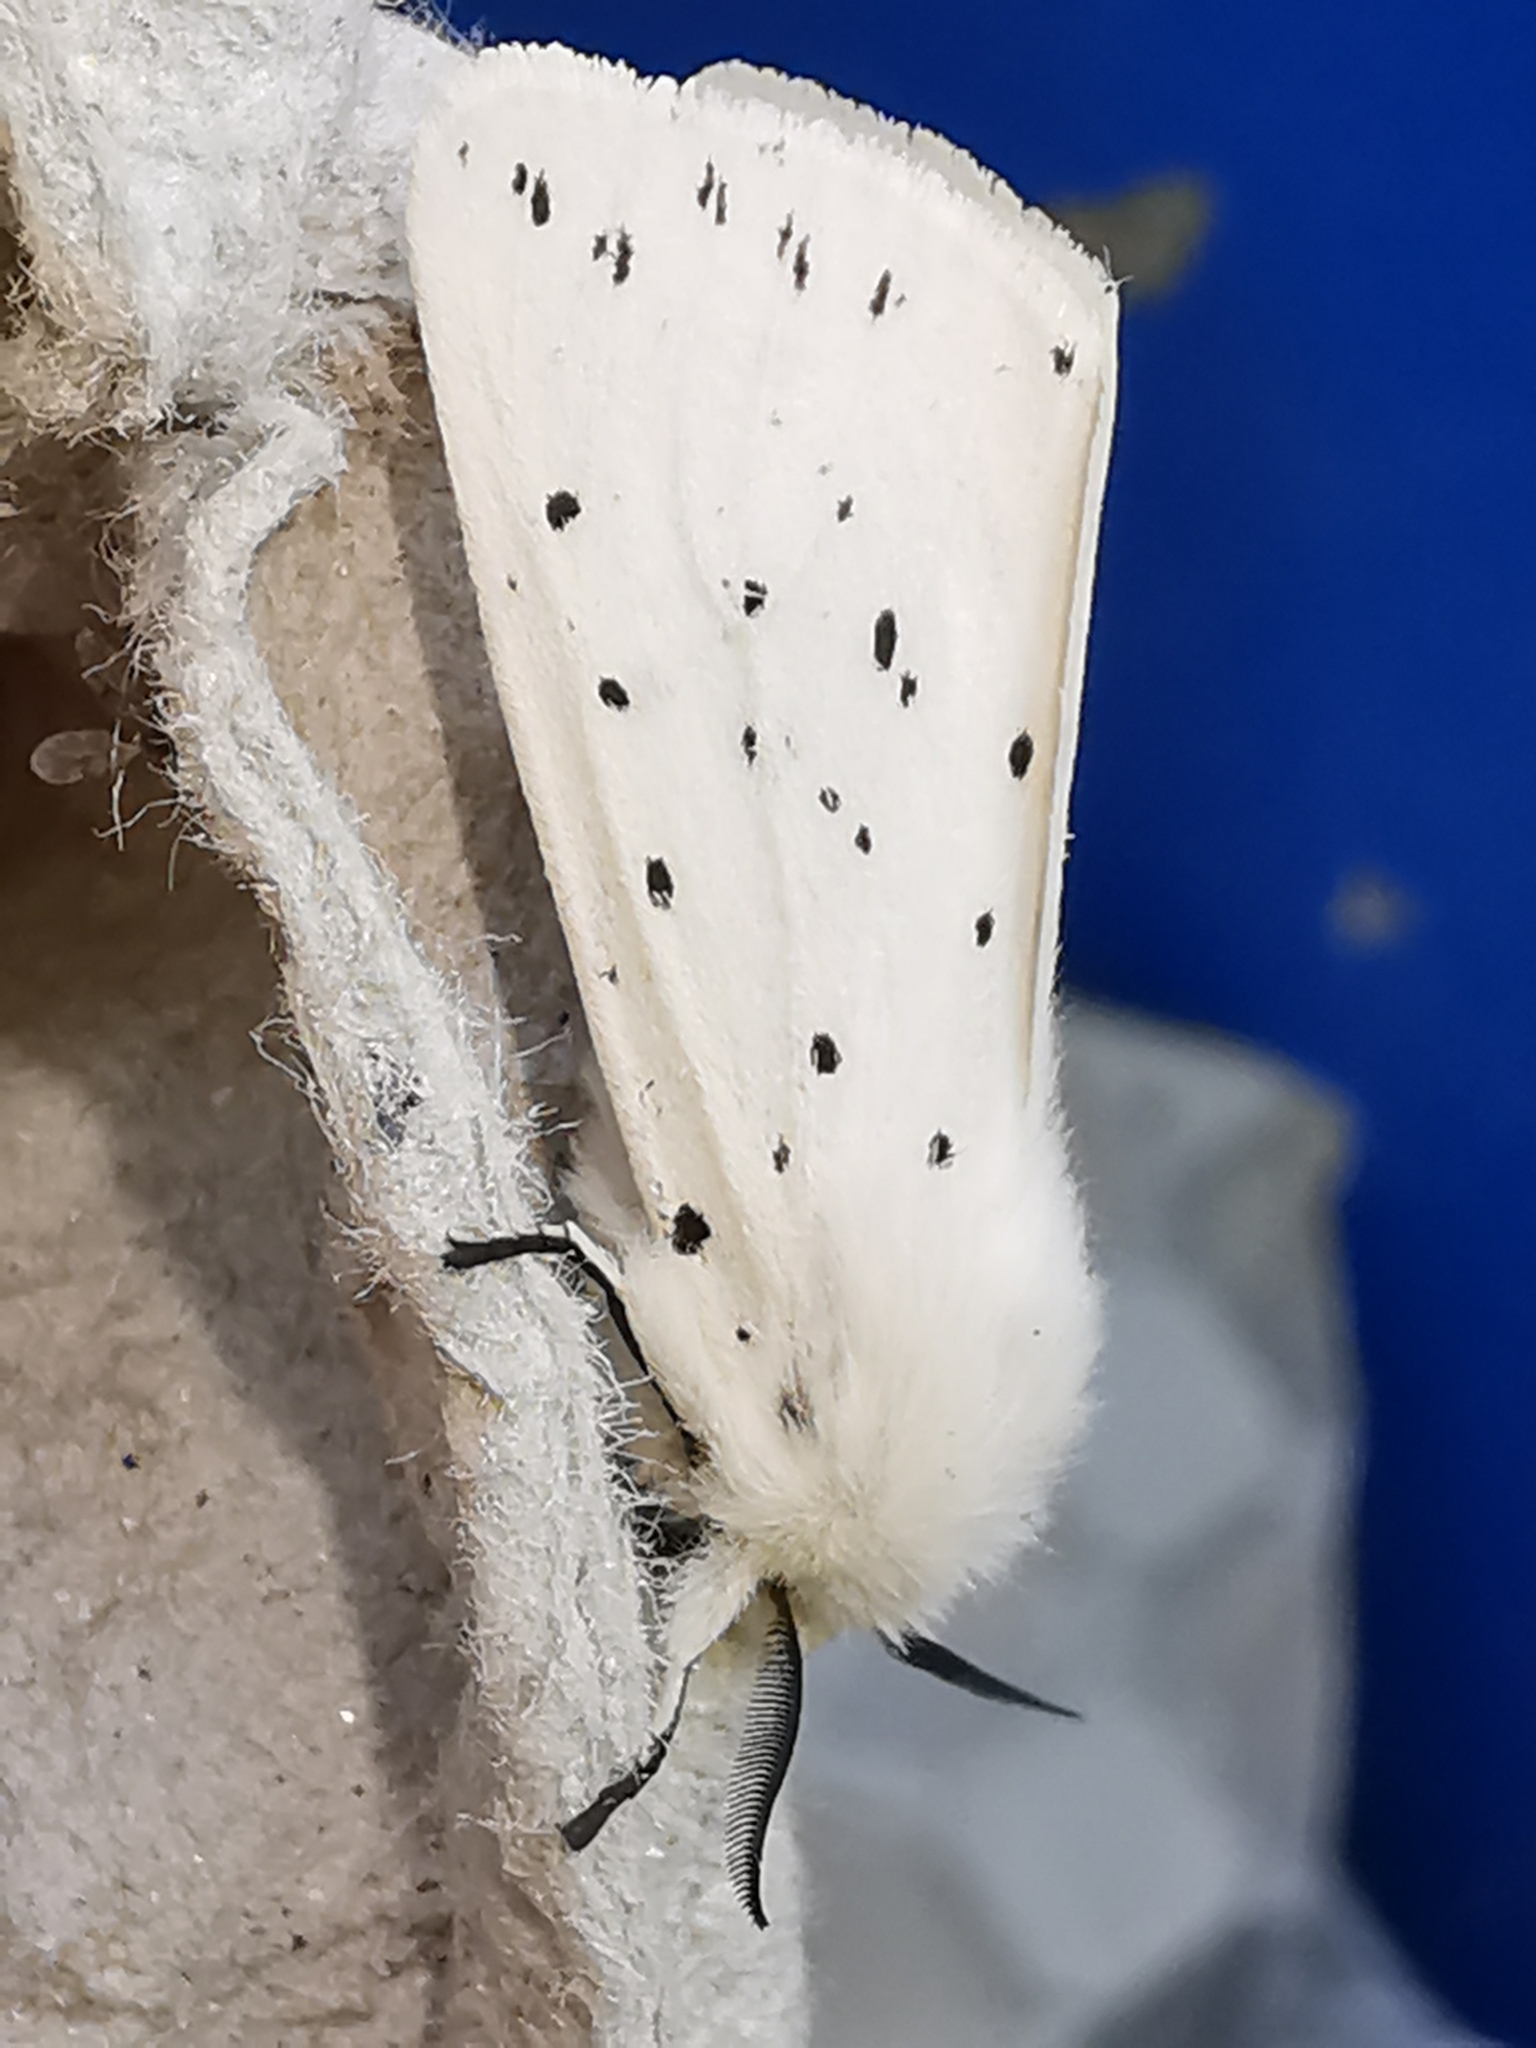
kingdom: Animalia
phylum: Arthropoda
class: Insecta
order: Lepidoptera
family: Erebidae
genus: Spilosoma
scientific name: Spilosoma lubricipeda
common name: White ermine
